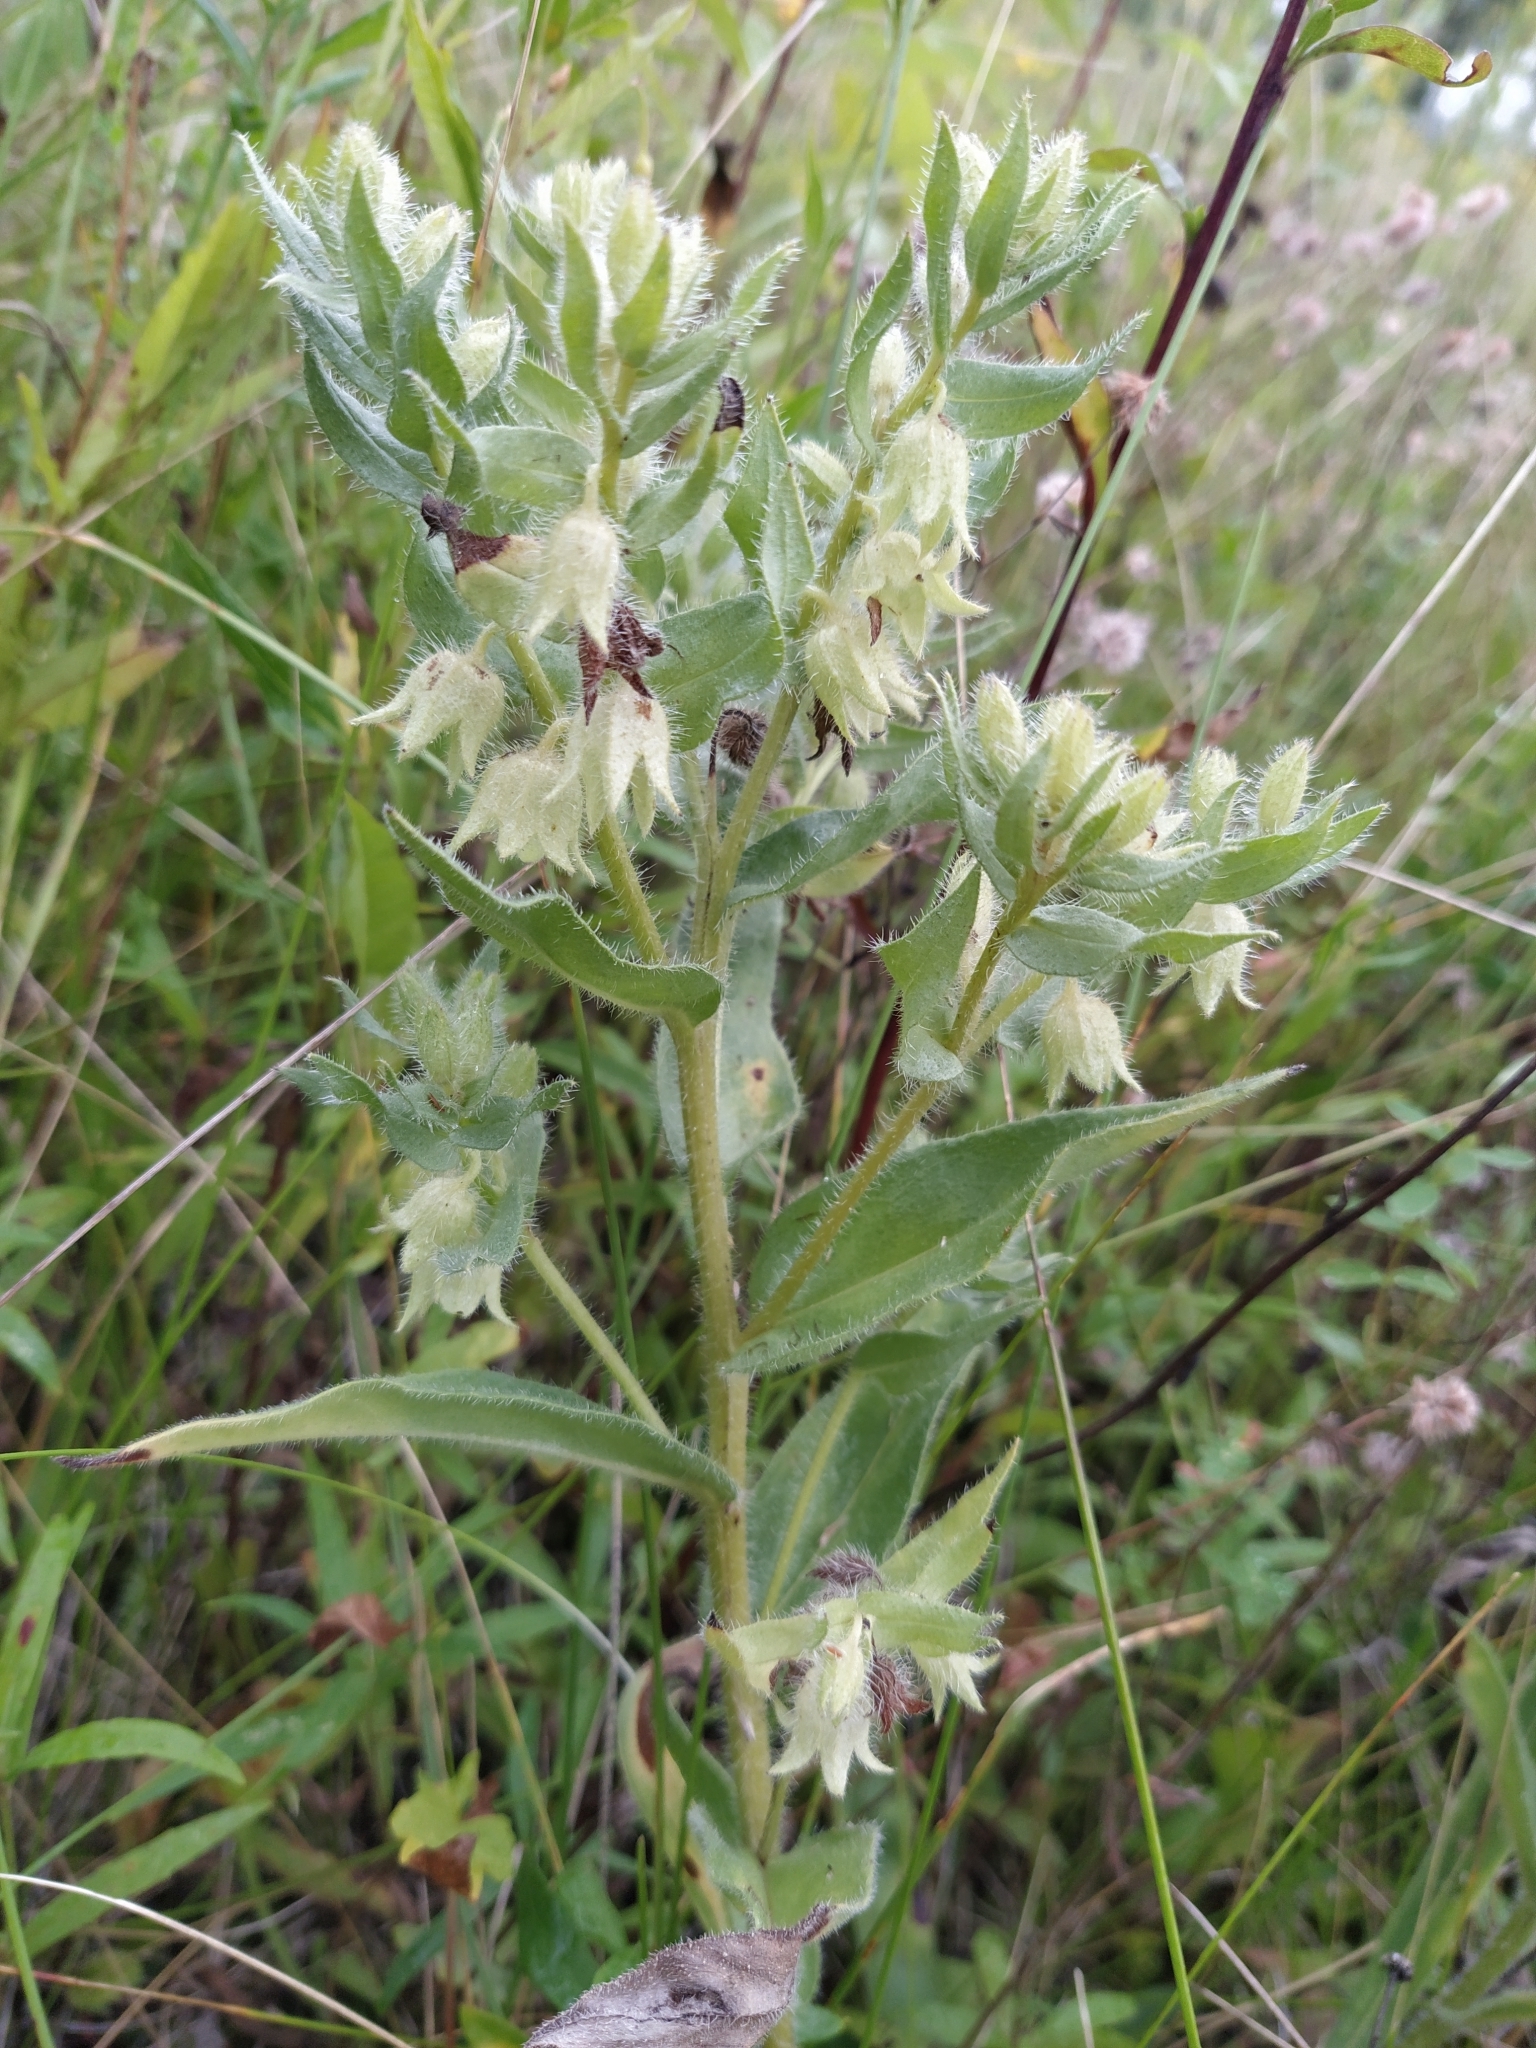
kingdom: Plantae
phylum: Tracheophyta
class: Magnoliopsida
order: Boraginales
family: Boraginaceae
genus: Nonea
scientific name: Nonea pulla
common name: Brown nonea
